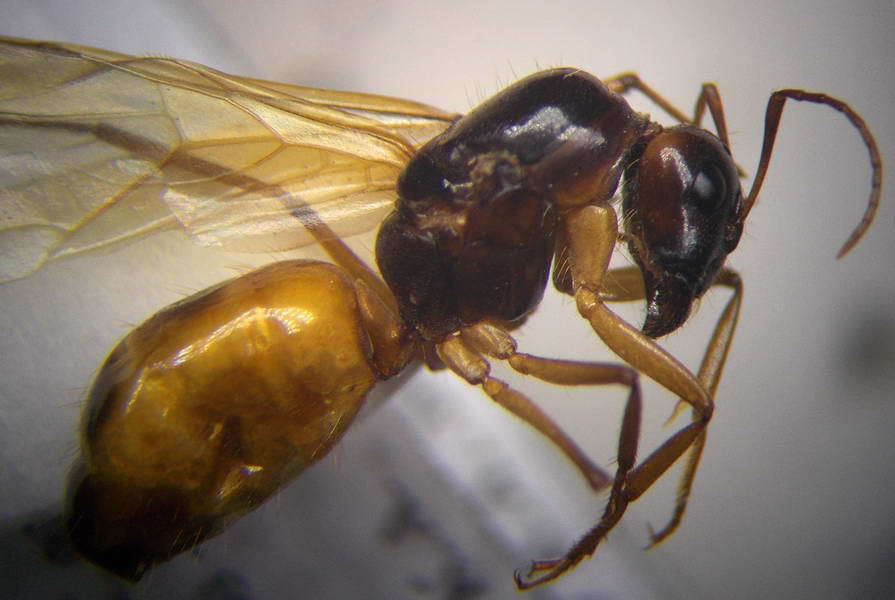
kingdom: Animalia
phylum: Arthropoda
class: Insecta
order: Hymenoptera
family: Formicidae
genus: Camponotus
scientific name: Camponotus fedtschenkoi
